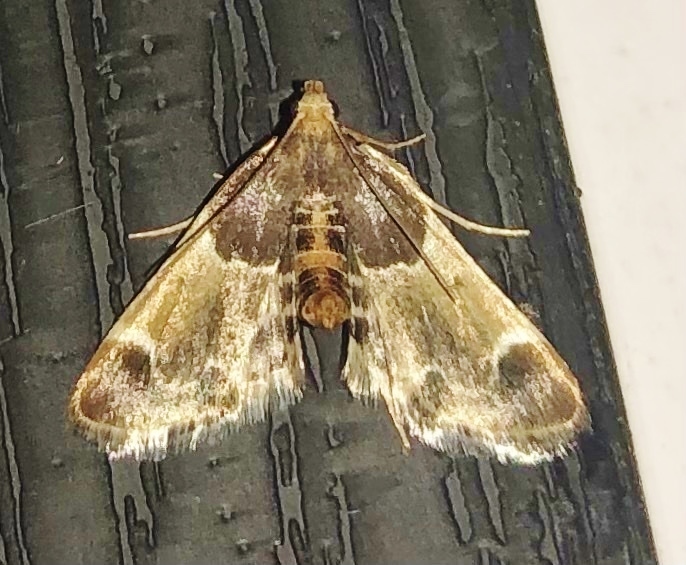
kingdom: Animalia
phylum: Arthropoda
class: Insecta
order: Lepidoptera
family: Pyralidae
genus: Pyralis
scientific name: Pyralis farinalis
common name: Meal moth
